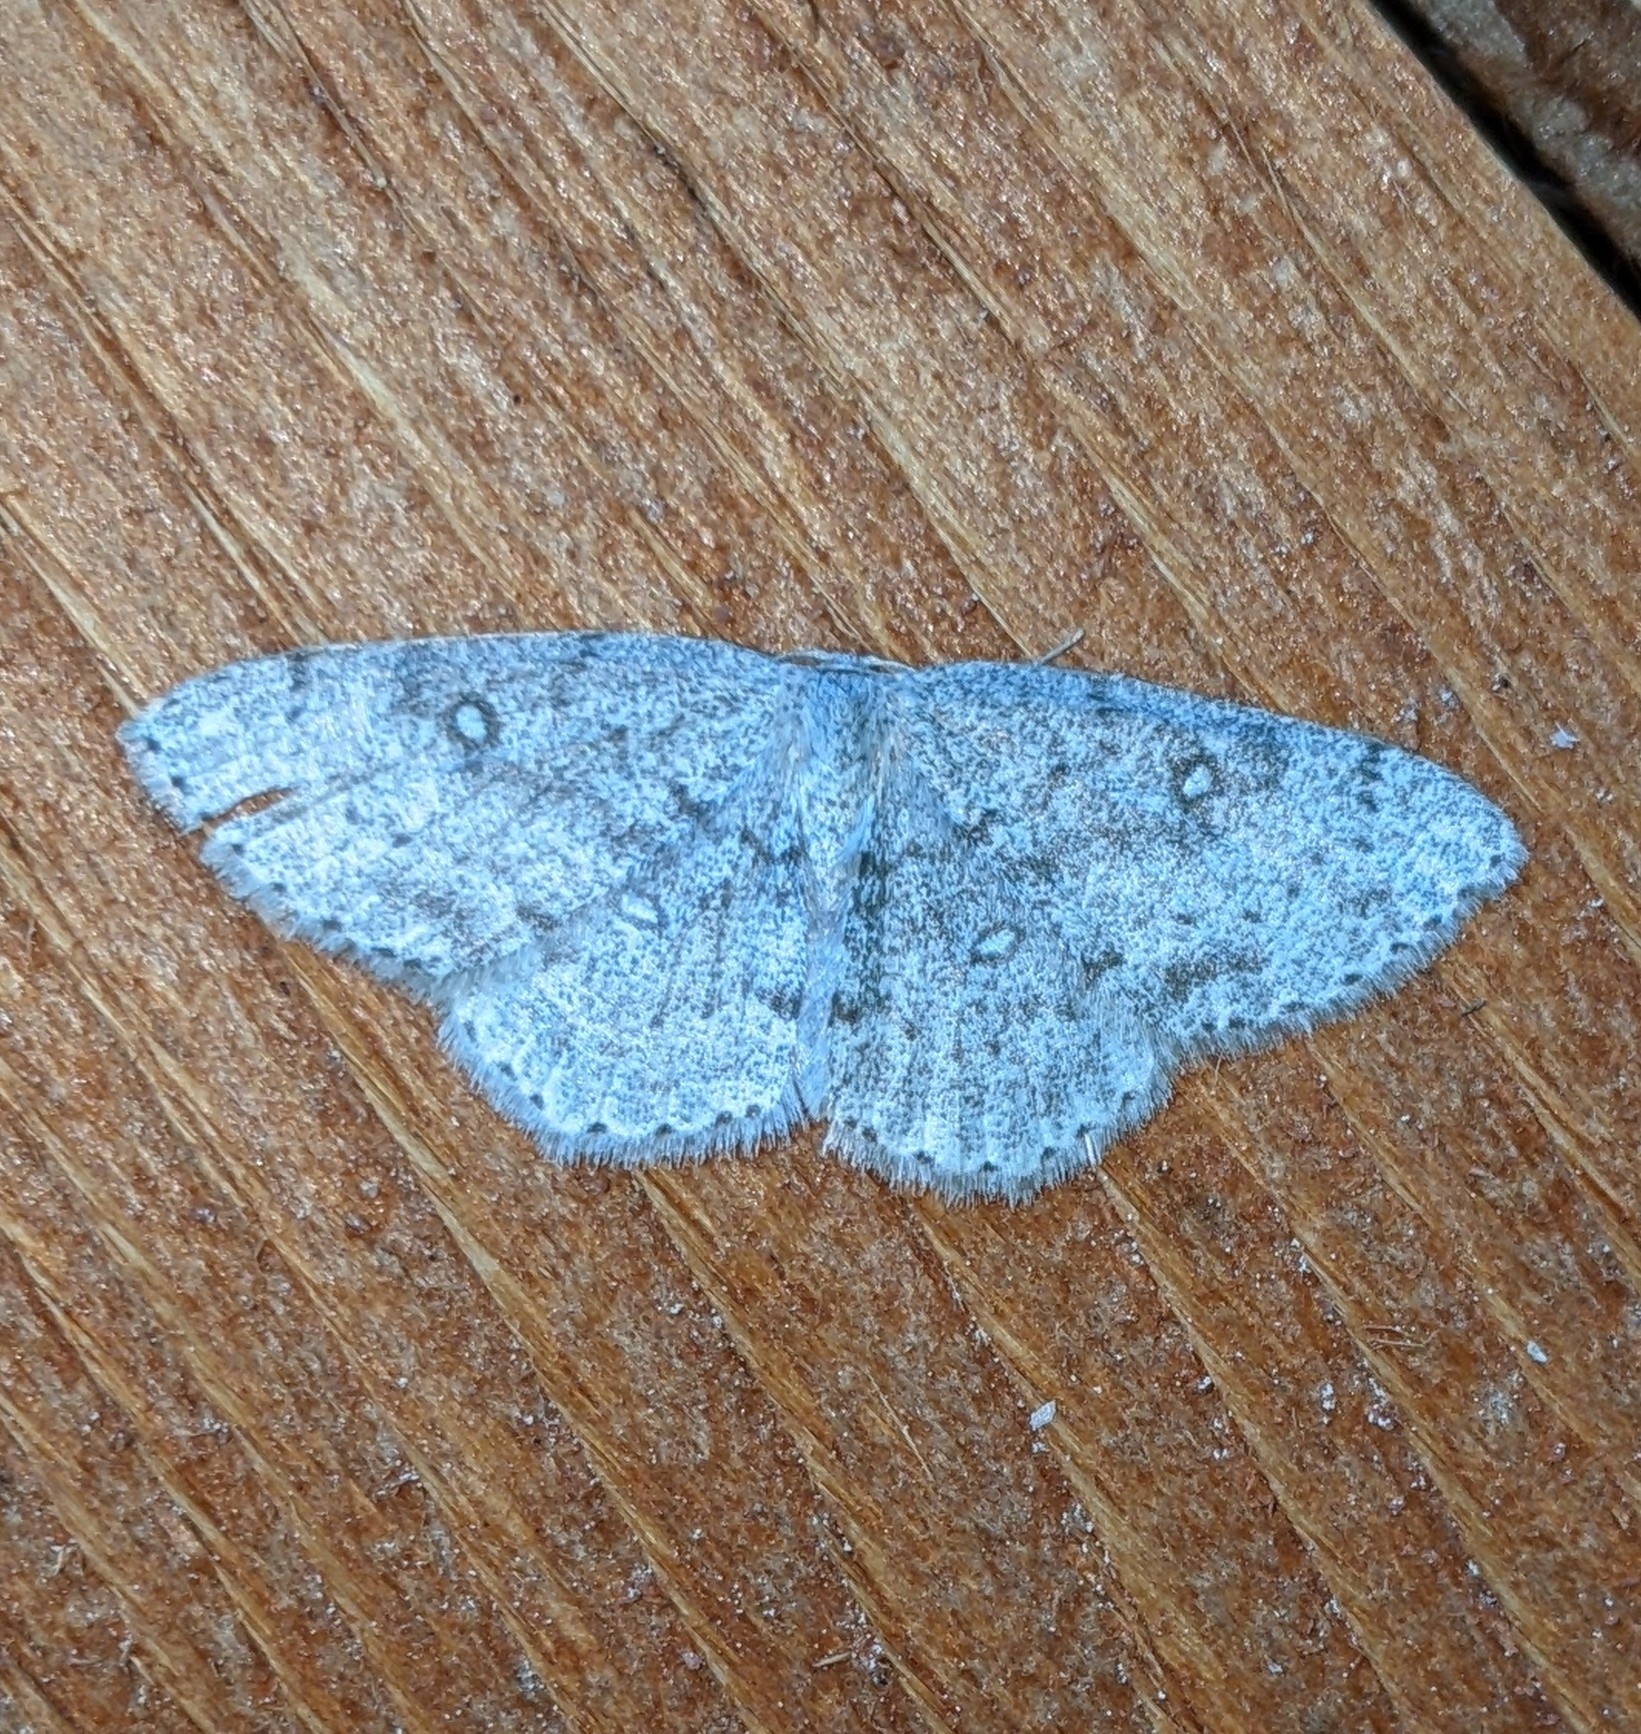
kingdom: Animalia
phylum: Arthropoda
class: Insecta
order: Lepidoptera
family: Geometridae
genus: Cyclophora
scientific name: Cyclophora pendulinaria
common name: Sweet fern geometer
